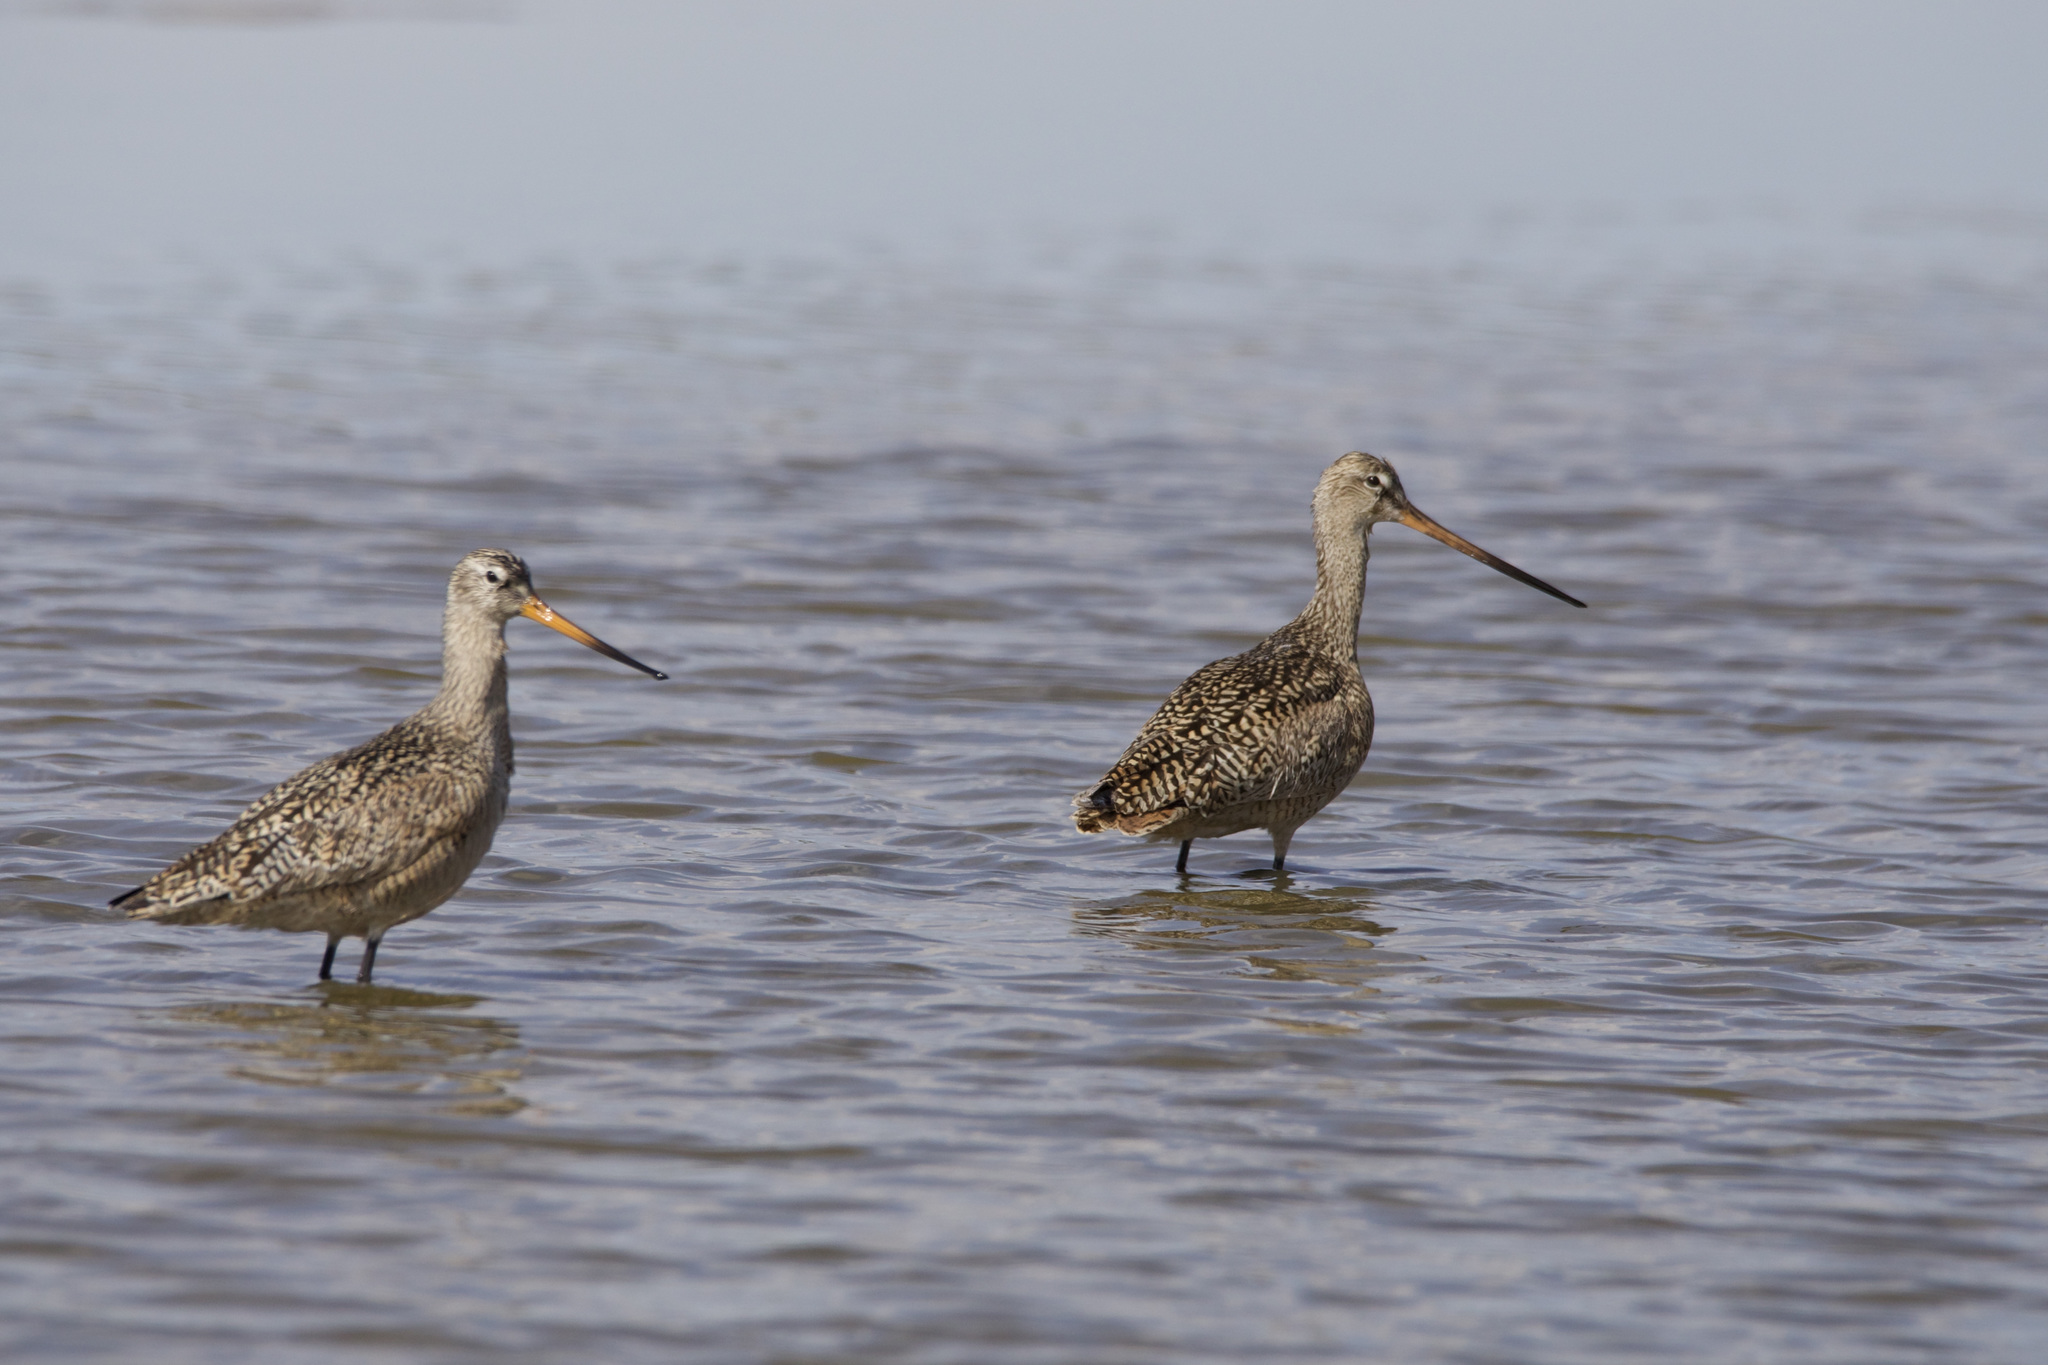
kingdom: Animalia
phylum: Chordata
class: Aves
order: Charadriiformes
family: Scolopacidae
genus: Limosa
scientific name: Limosa fedoa
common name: Marbled godwit
